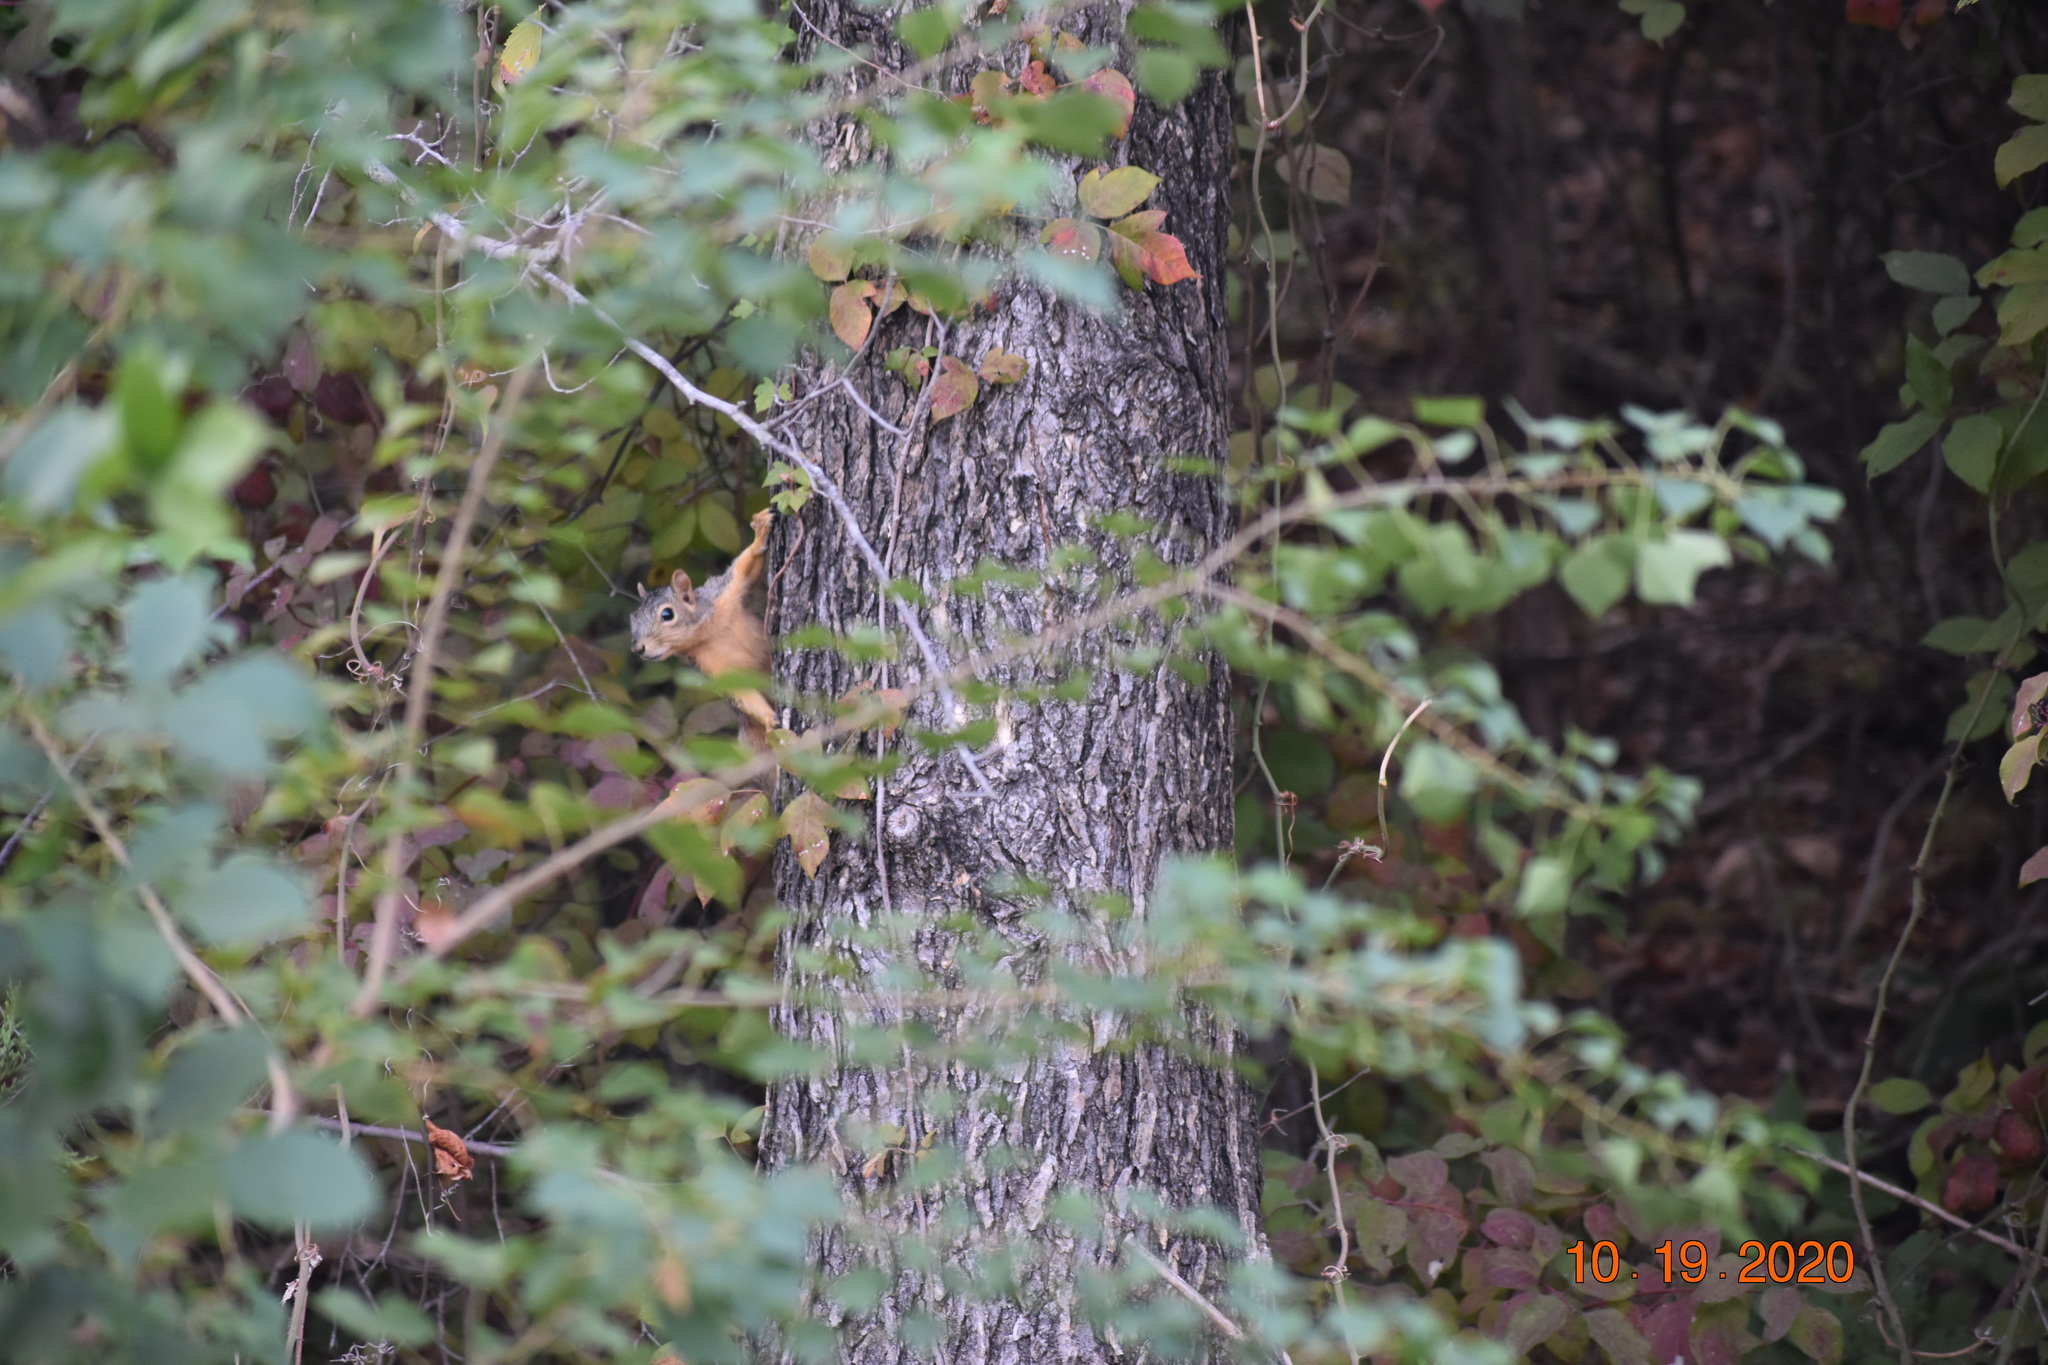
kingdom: Animalia
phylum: Chordata
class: Mammalia
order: Rodentia
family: Sciuridae
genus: Sciurus
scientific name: Sciurus niger
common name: Fox squirrel
